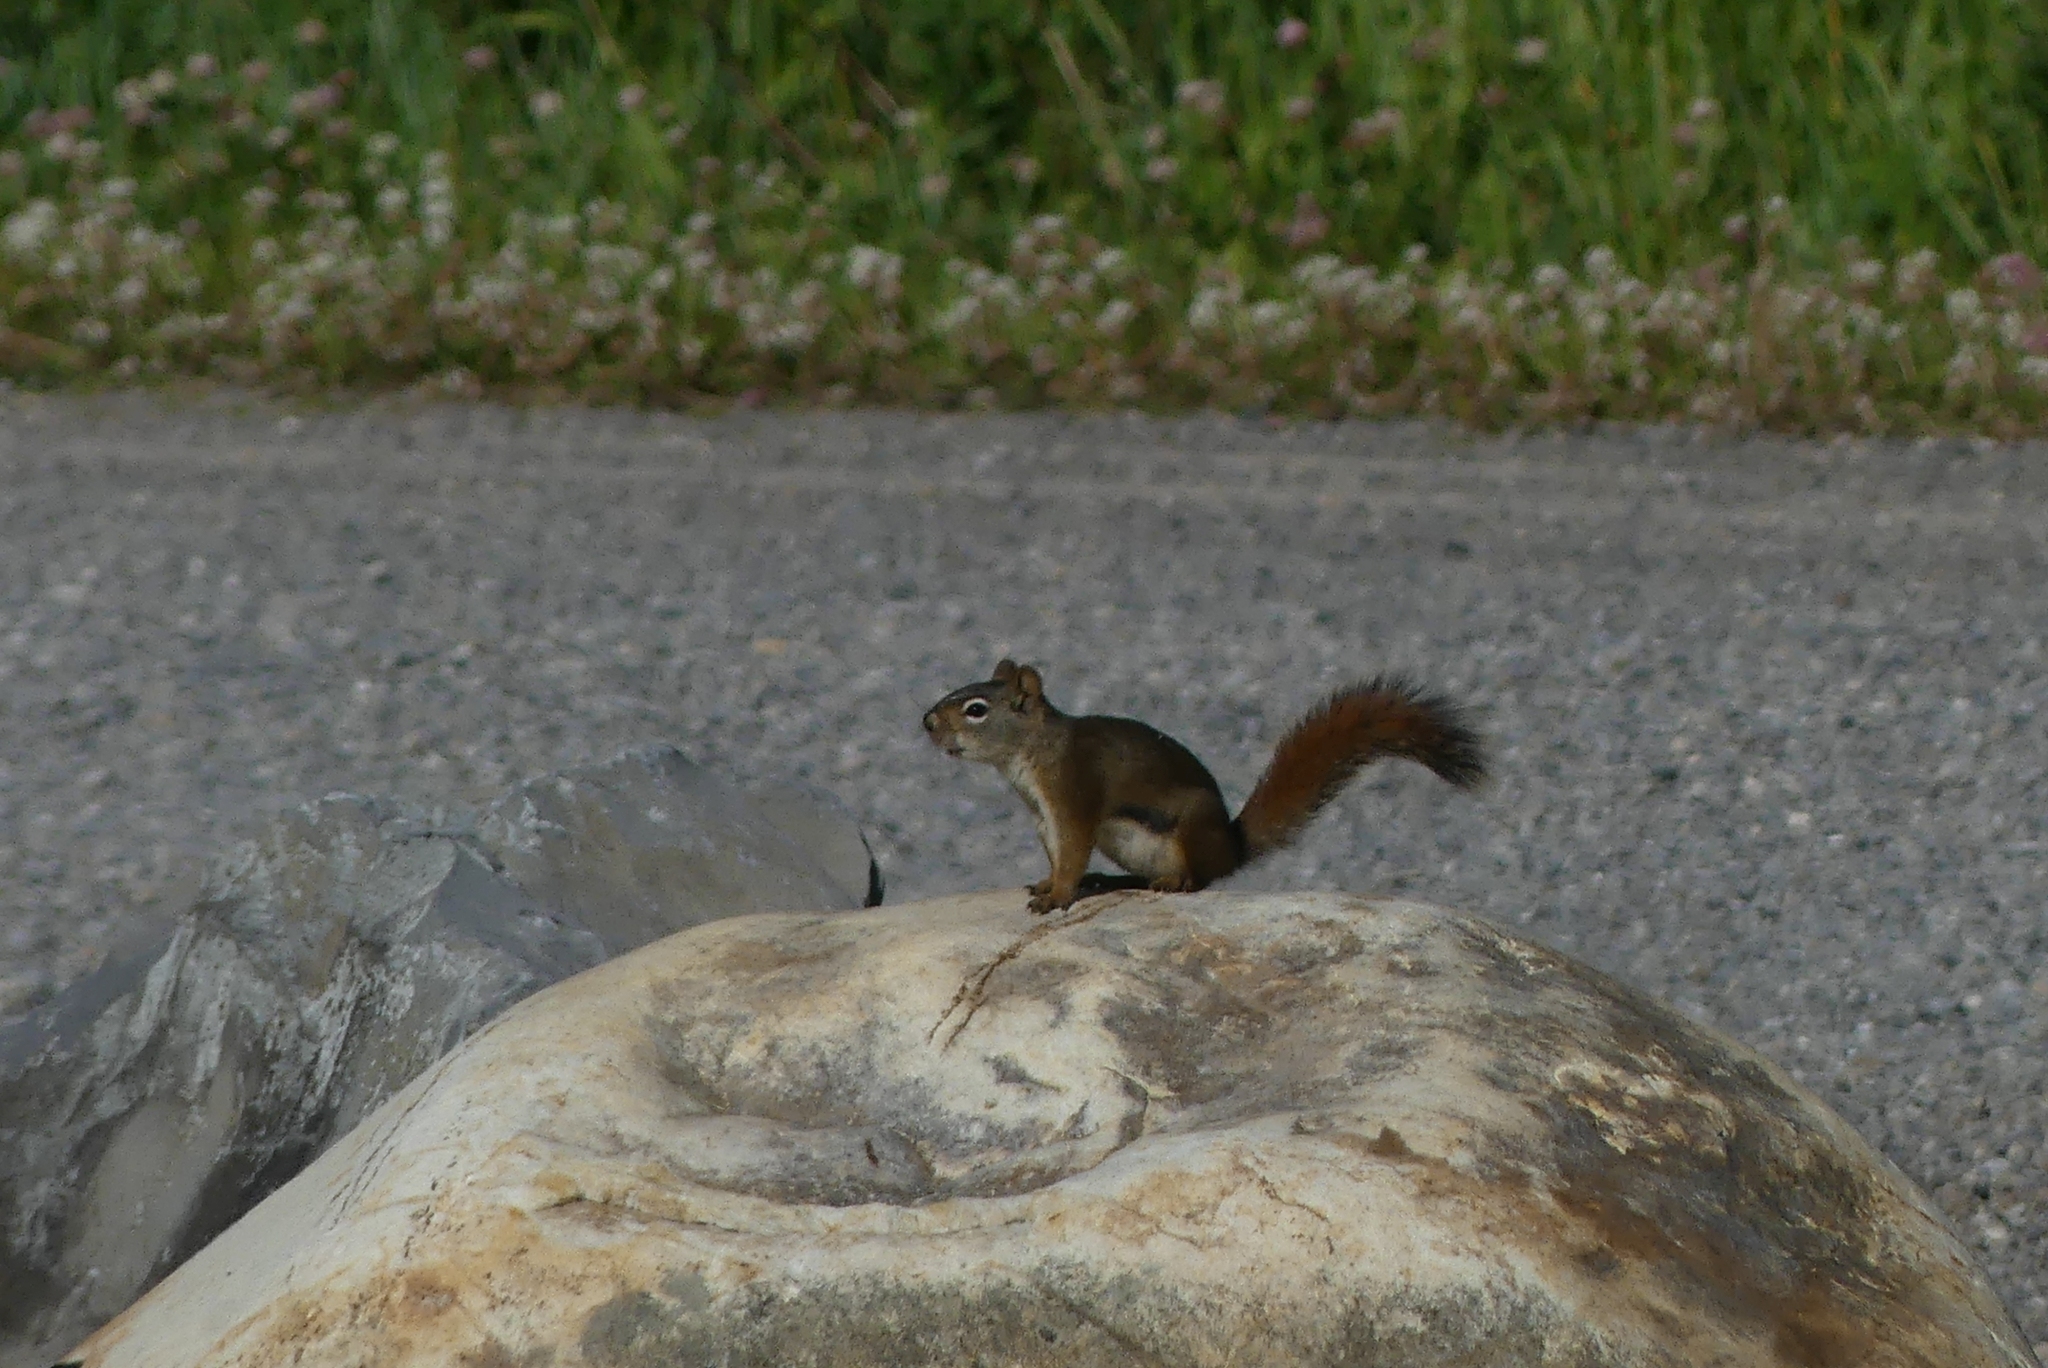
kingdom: Animalia
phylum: Chordata
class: Mammalia
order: Rodentia
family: Sciuridae
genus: Tamiasciurus
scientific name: Tamiasciurus hudsonicus
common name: Red squirrel
